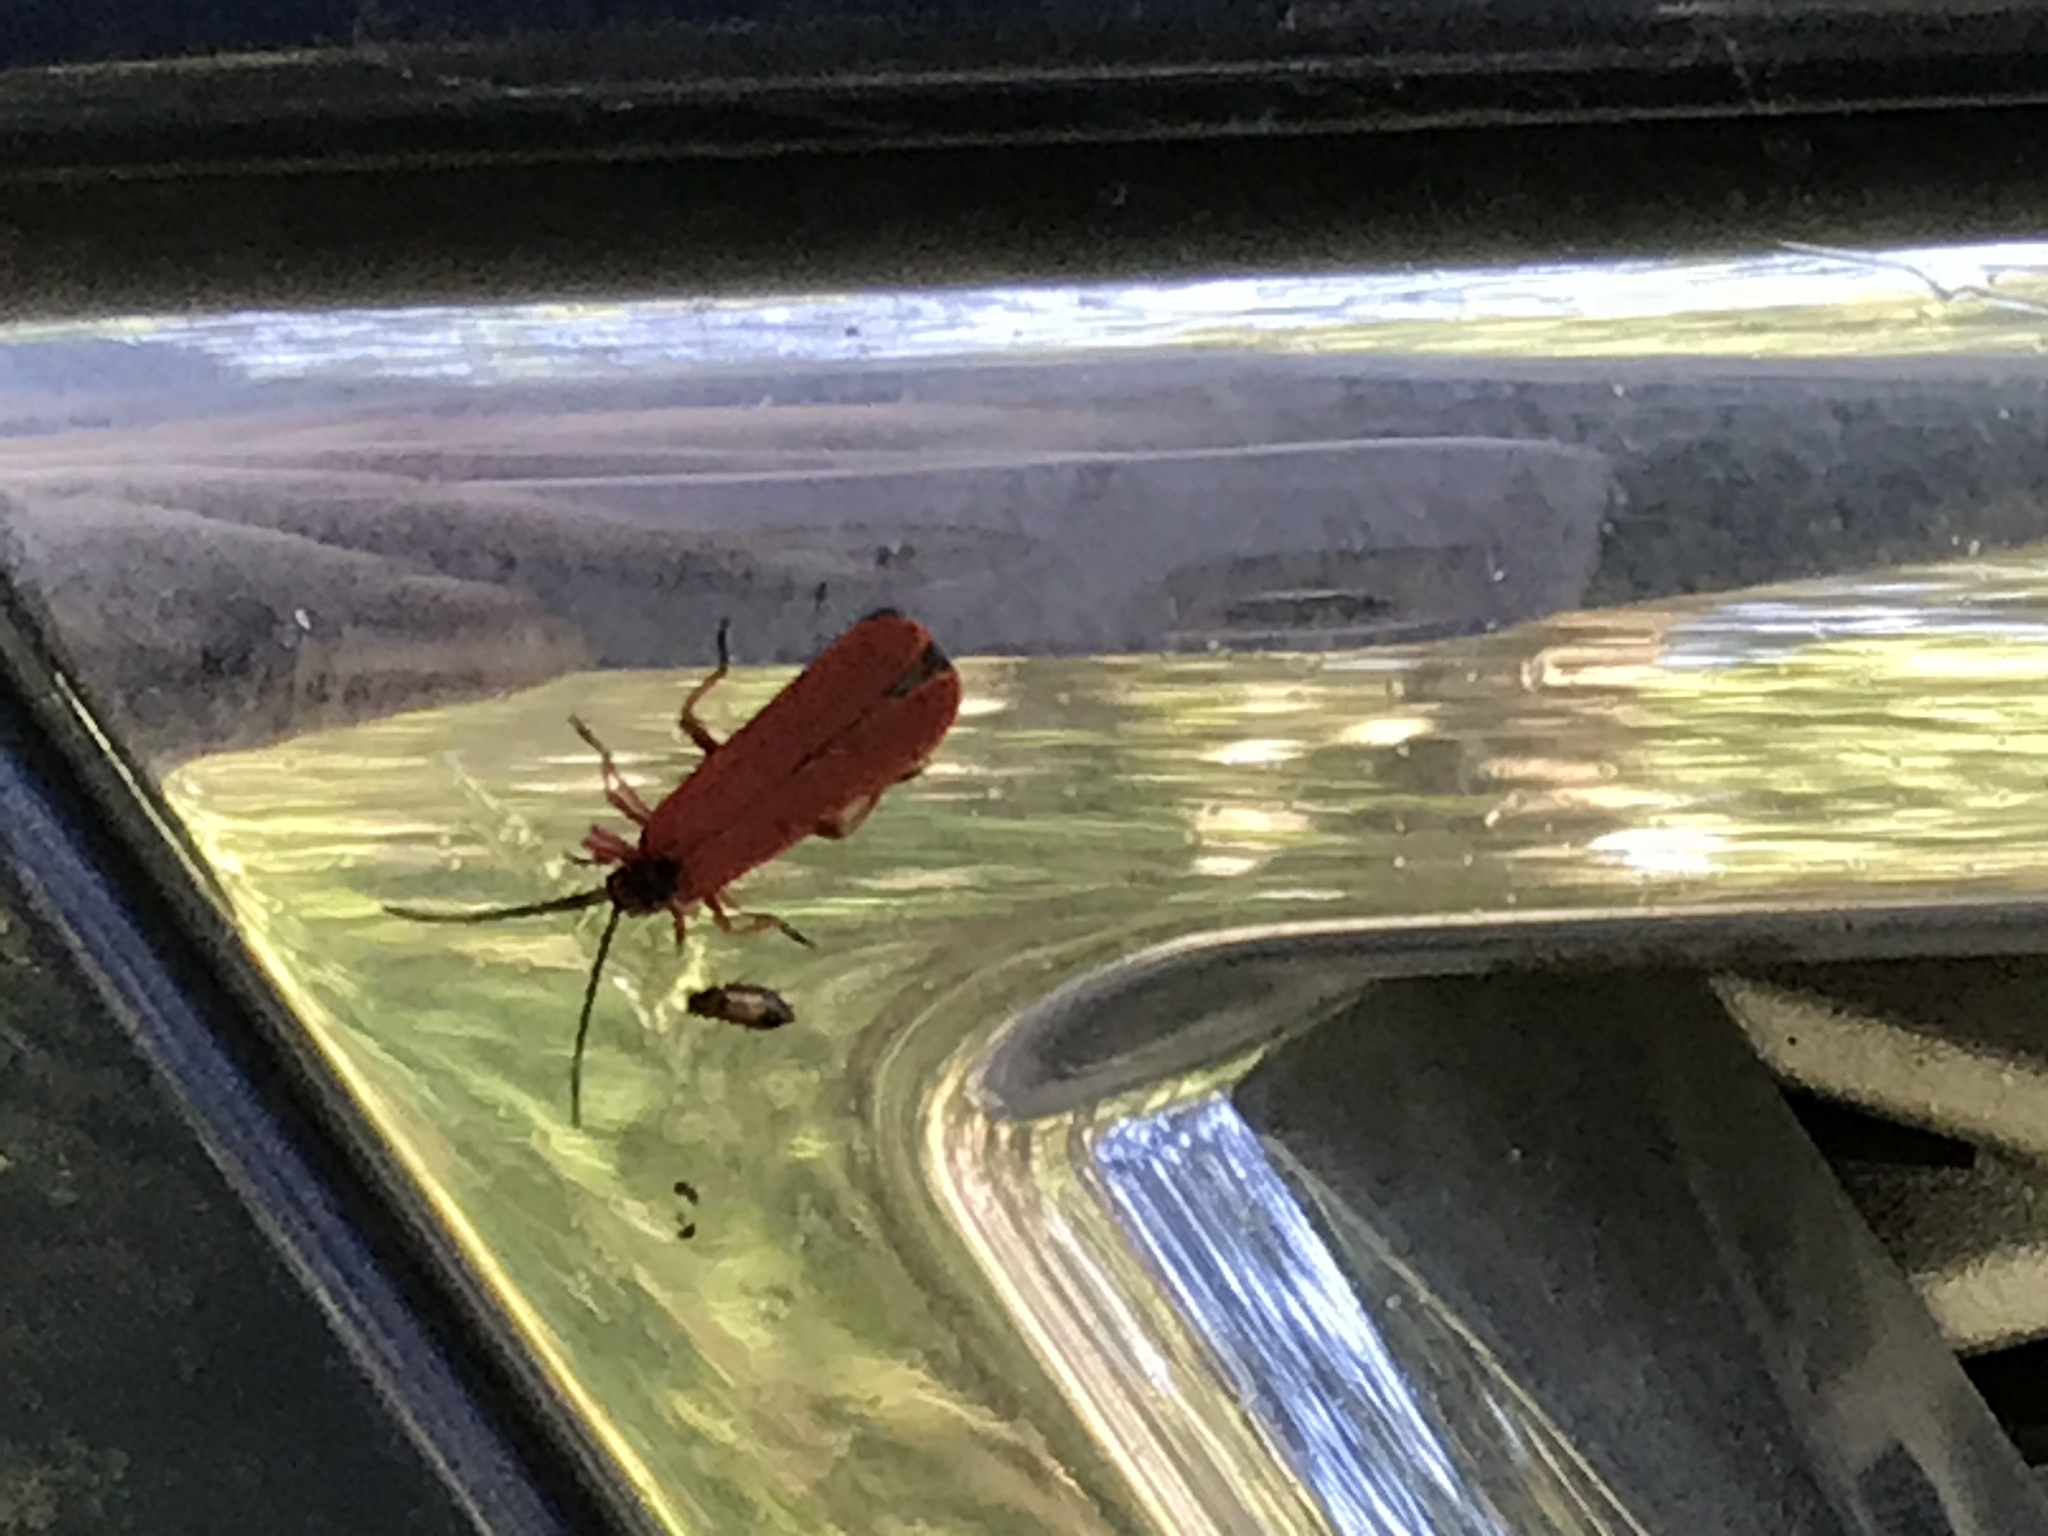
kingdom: Animalia
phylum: Arthropoda
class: Insecta
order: Coleoptera
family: Lycidae
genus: Dictyoptera
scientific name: Dictyoptera simplicipes
